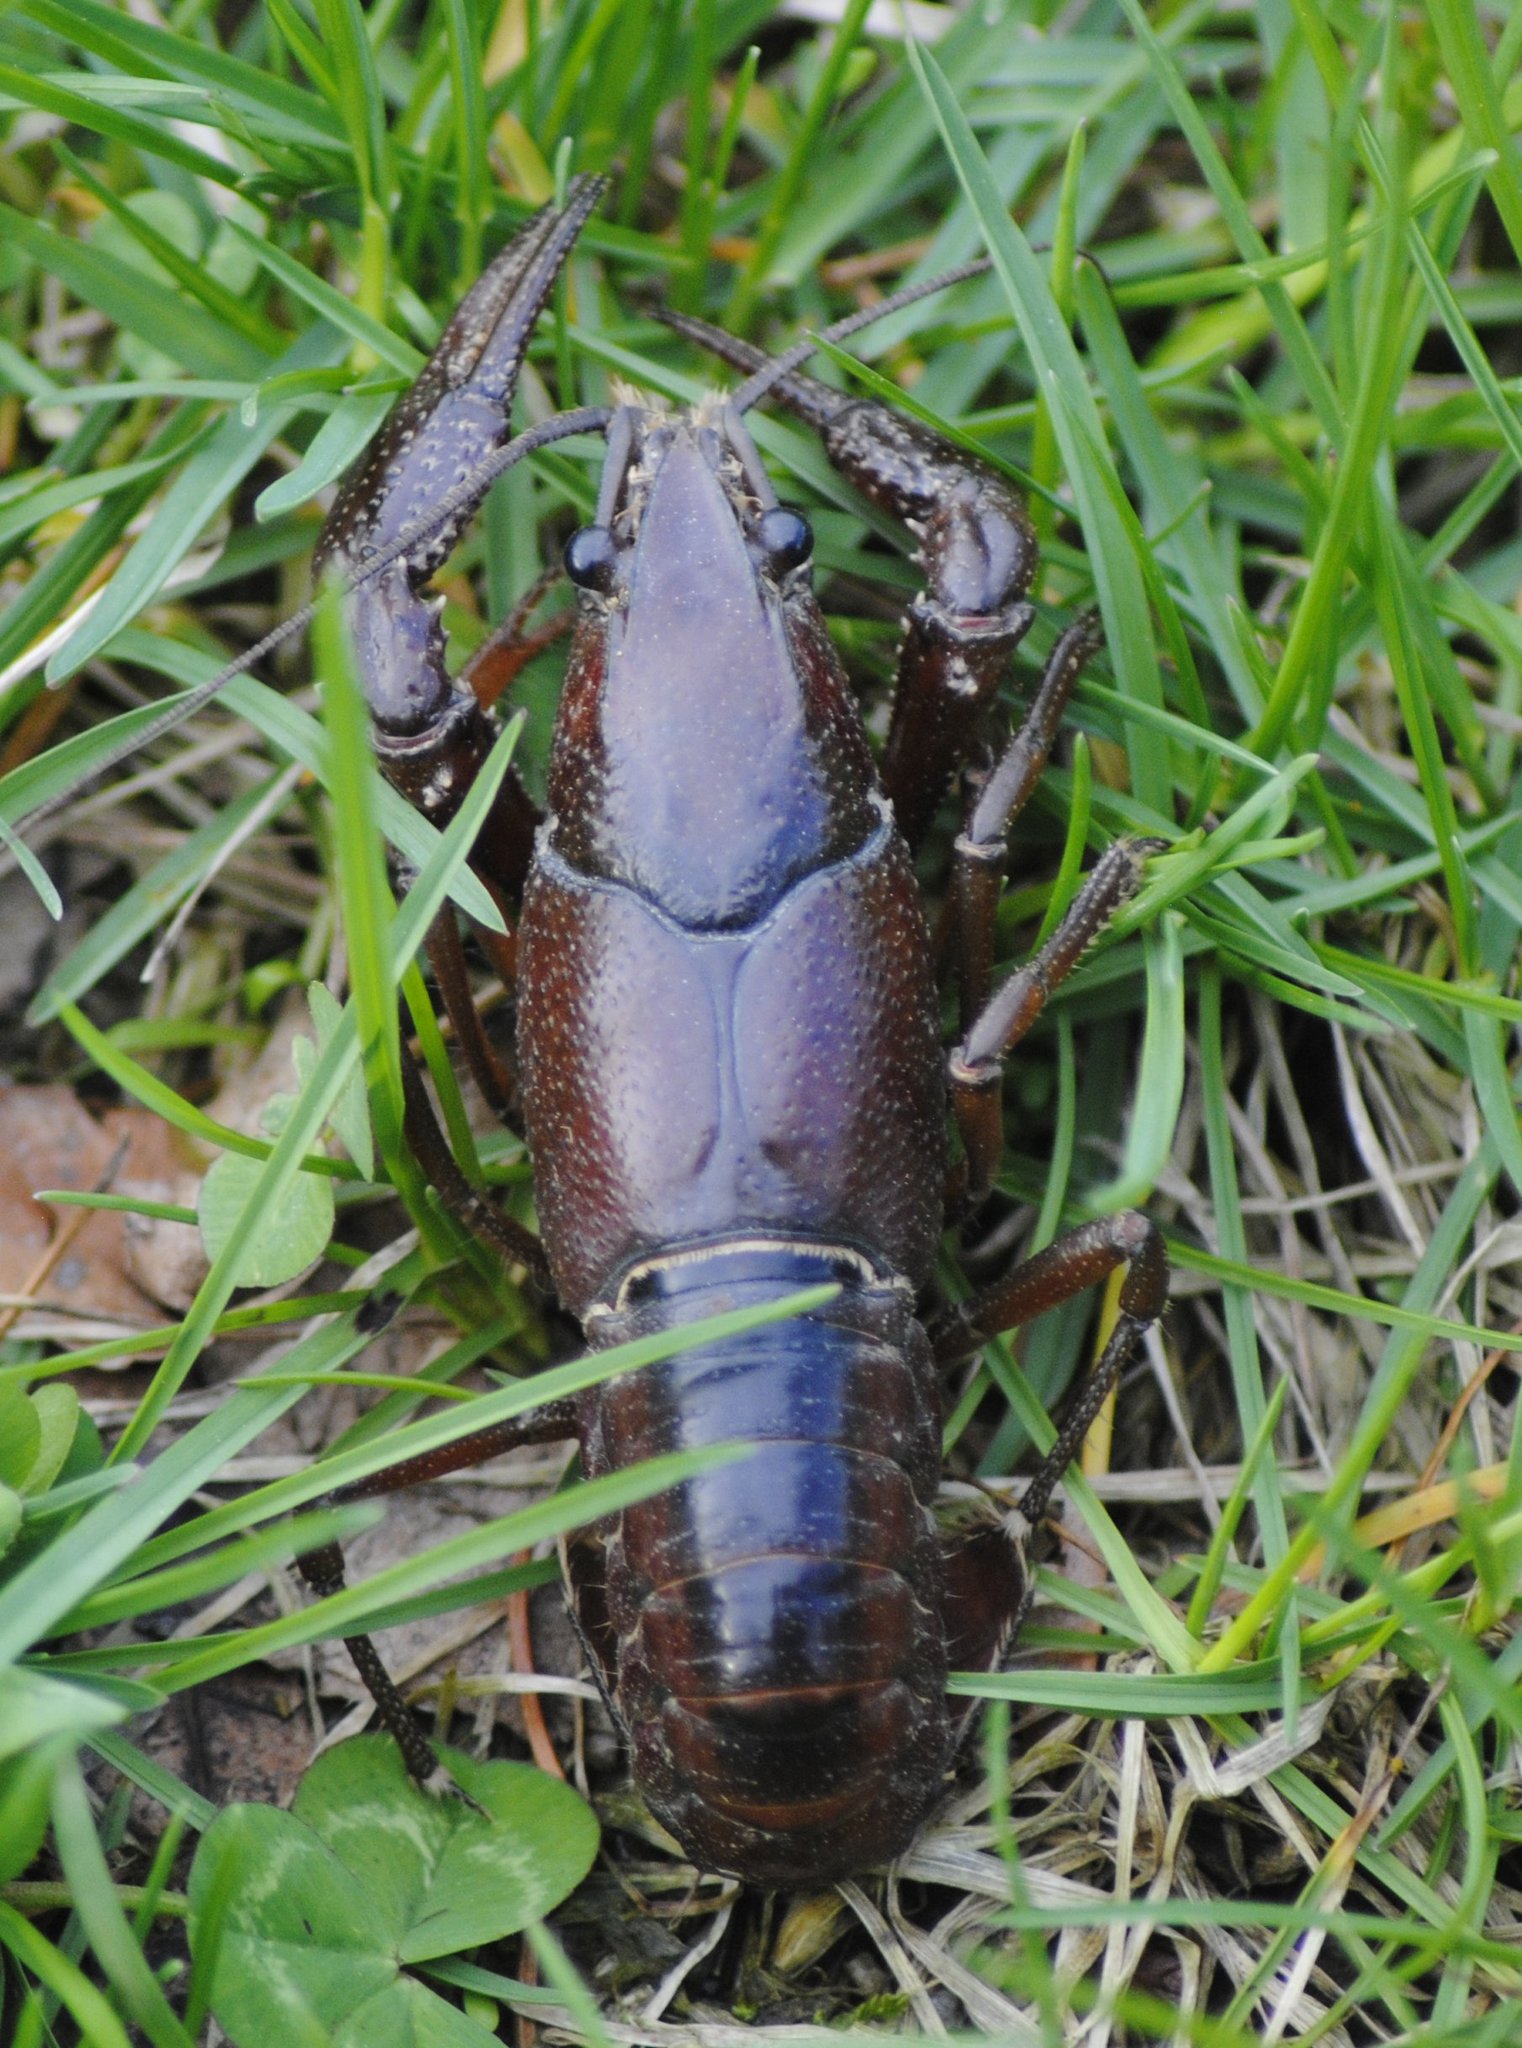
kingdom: Animalia
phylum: Arthropoda
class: Malacostraca
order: Decapoda
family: Cambaridae
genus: Procambarus
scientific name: Procambarus acutus
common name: White river crayfish
